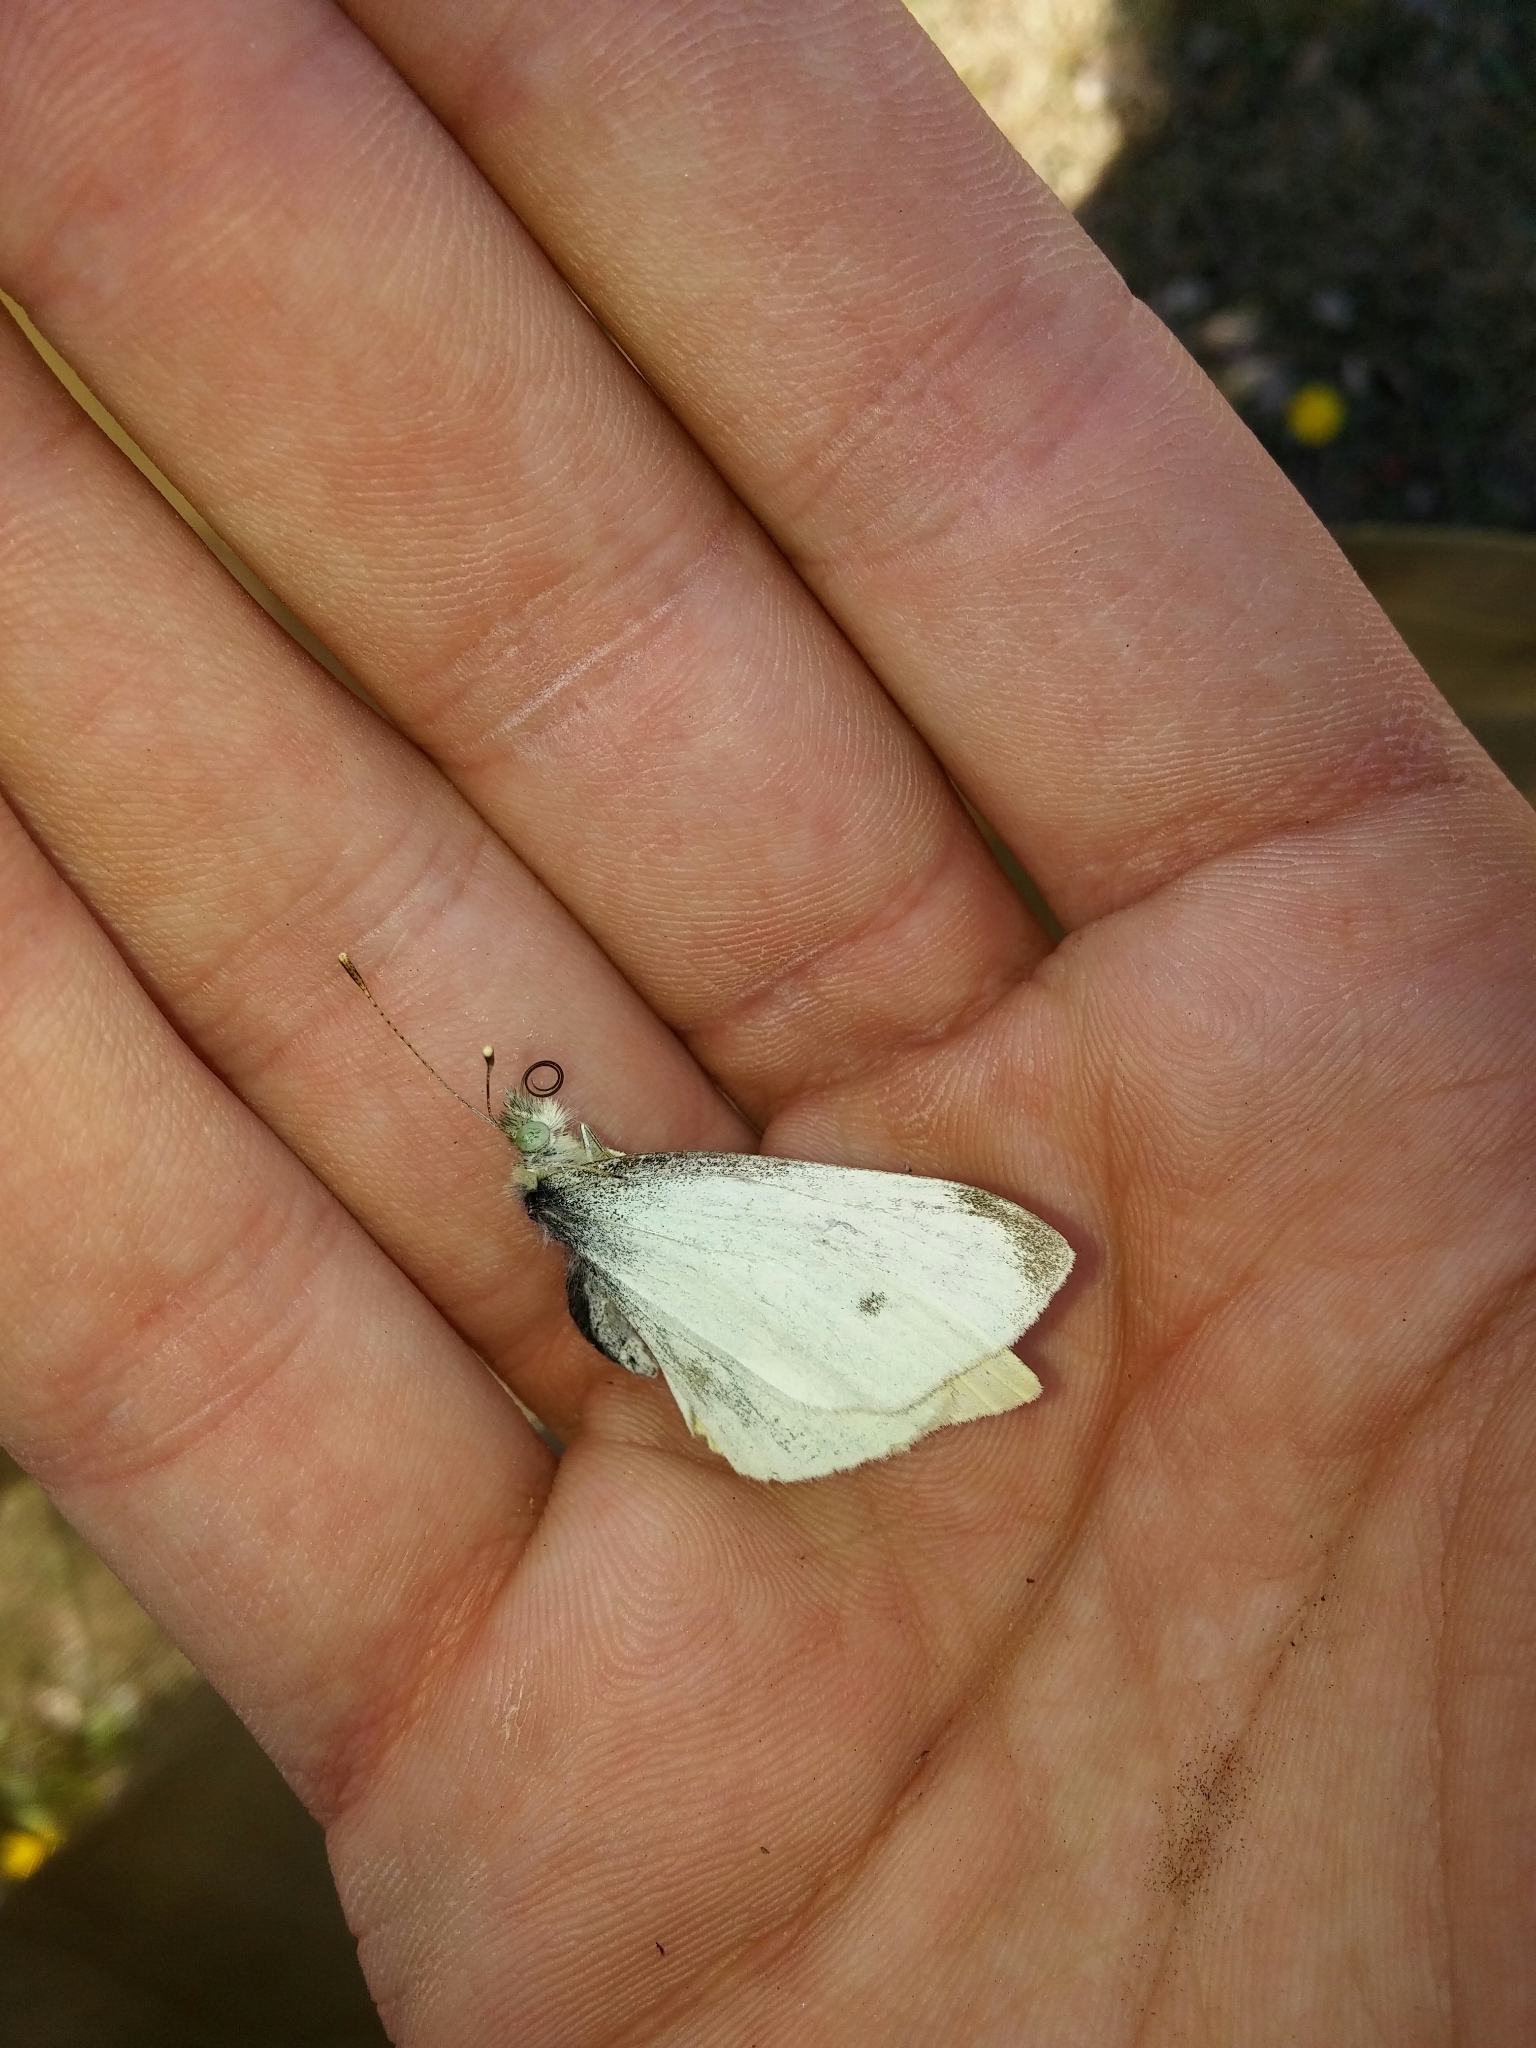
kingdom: Animalia
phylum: Arthropoda
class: Insecta
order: Lepidoptera
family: Pieridae
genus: Pieris
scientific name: Pieris rapae
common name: Small white
